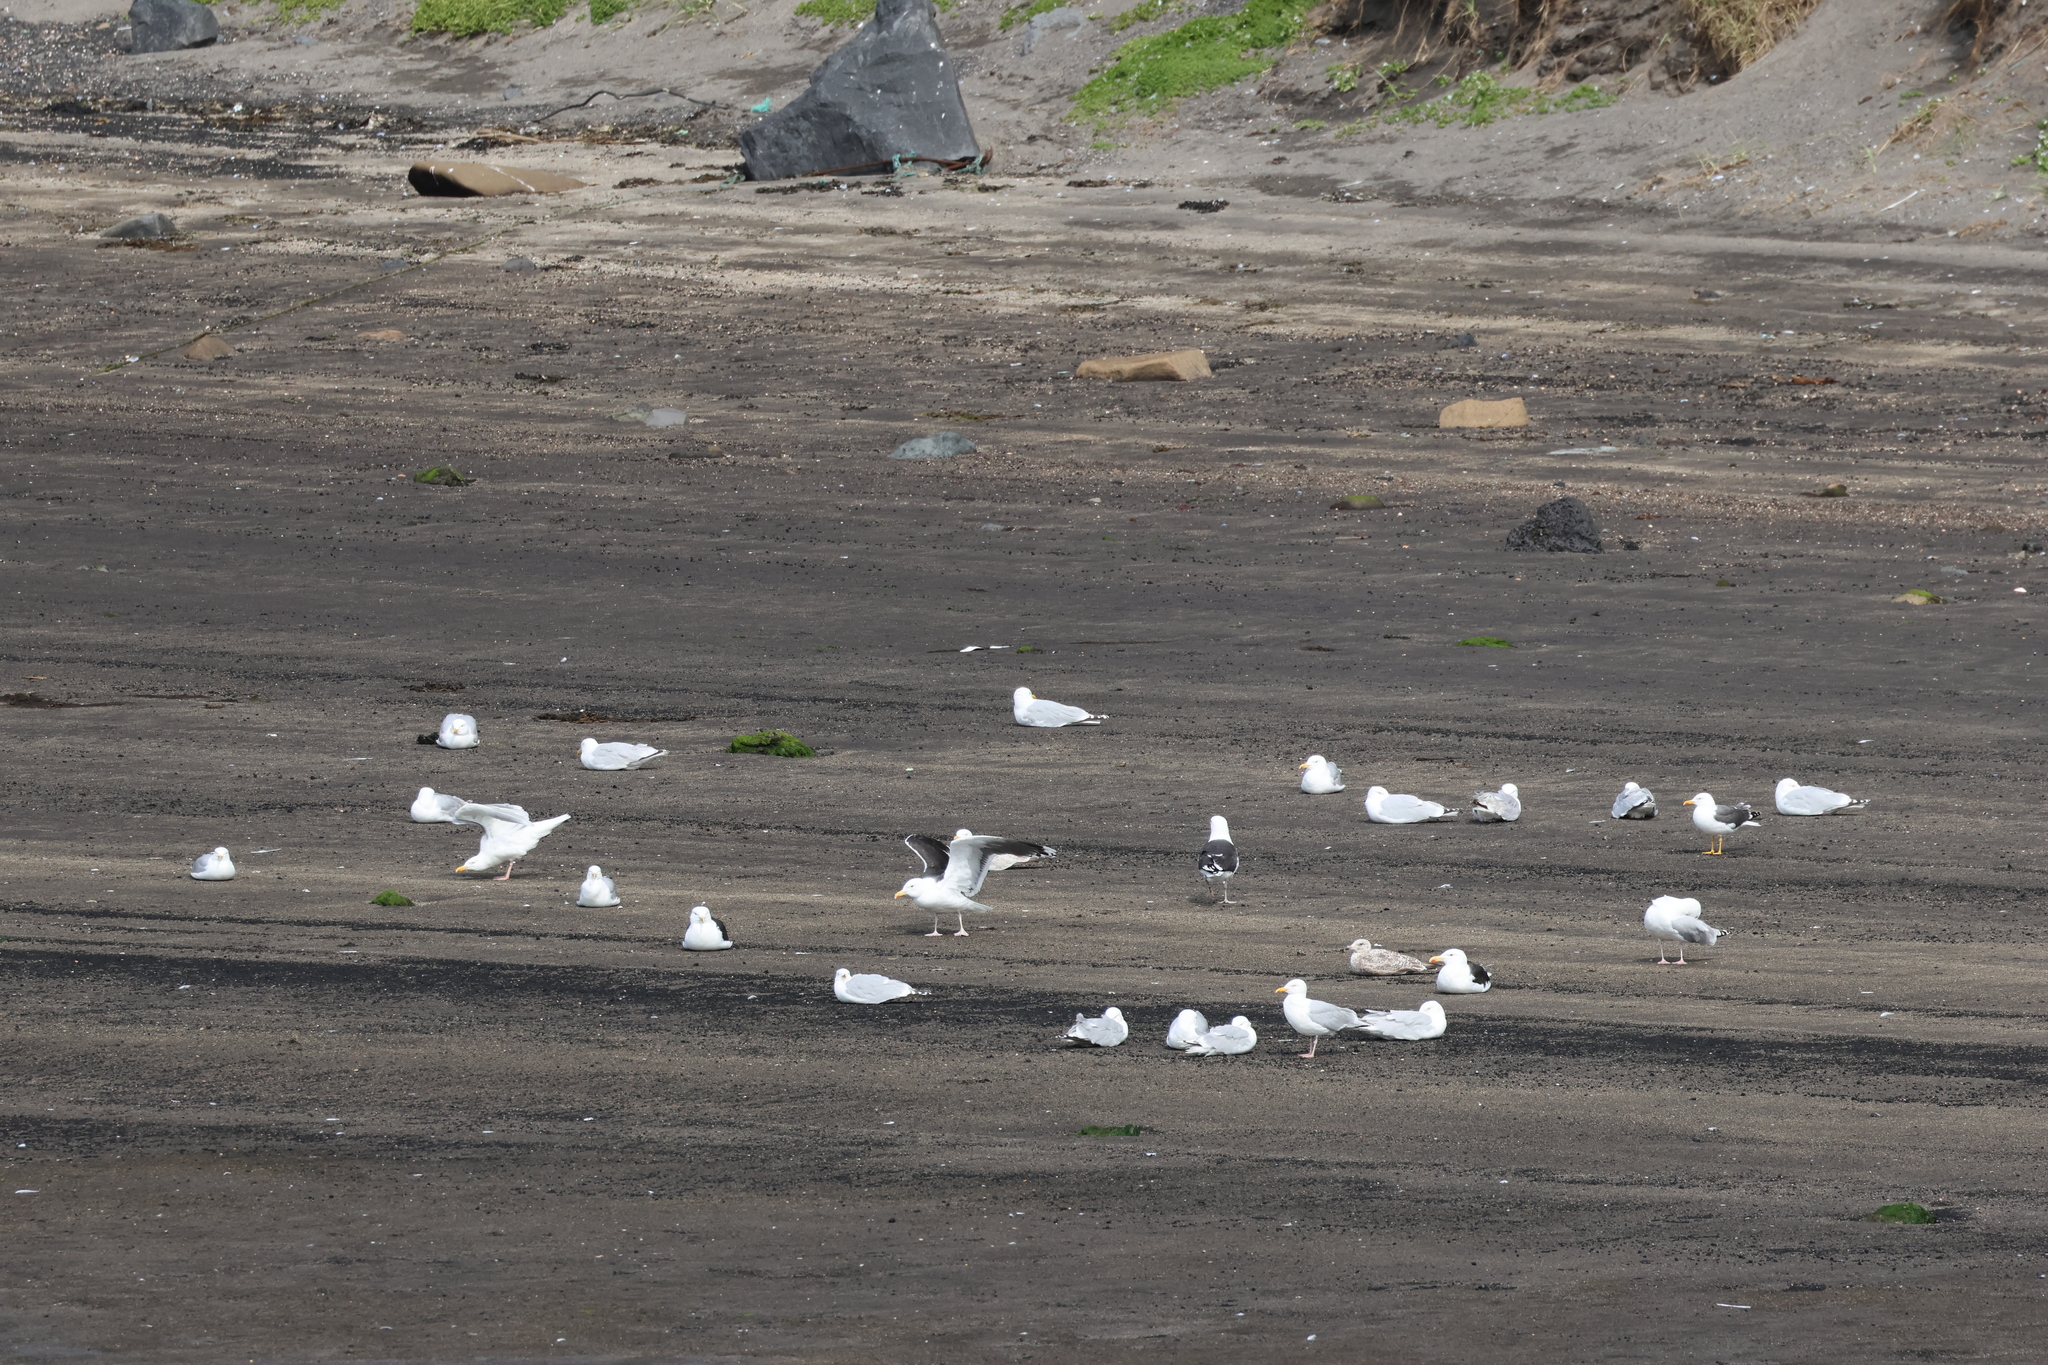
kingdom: Animalia
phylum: Chordata
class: Aves
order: Charadriiformes
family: Laridae
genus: Larus
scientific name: Larus marinus
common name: Great black-backed gull
